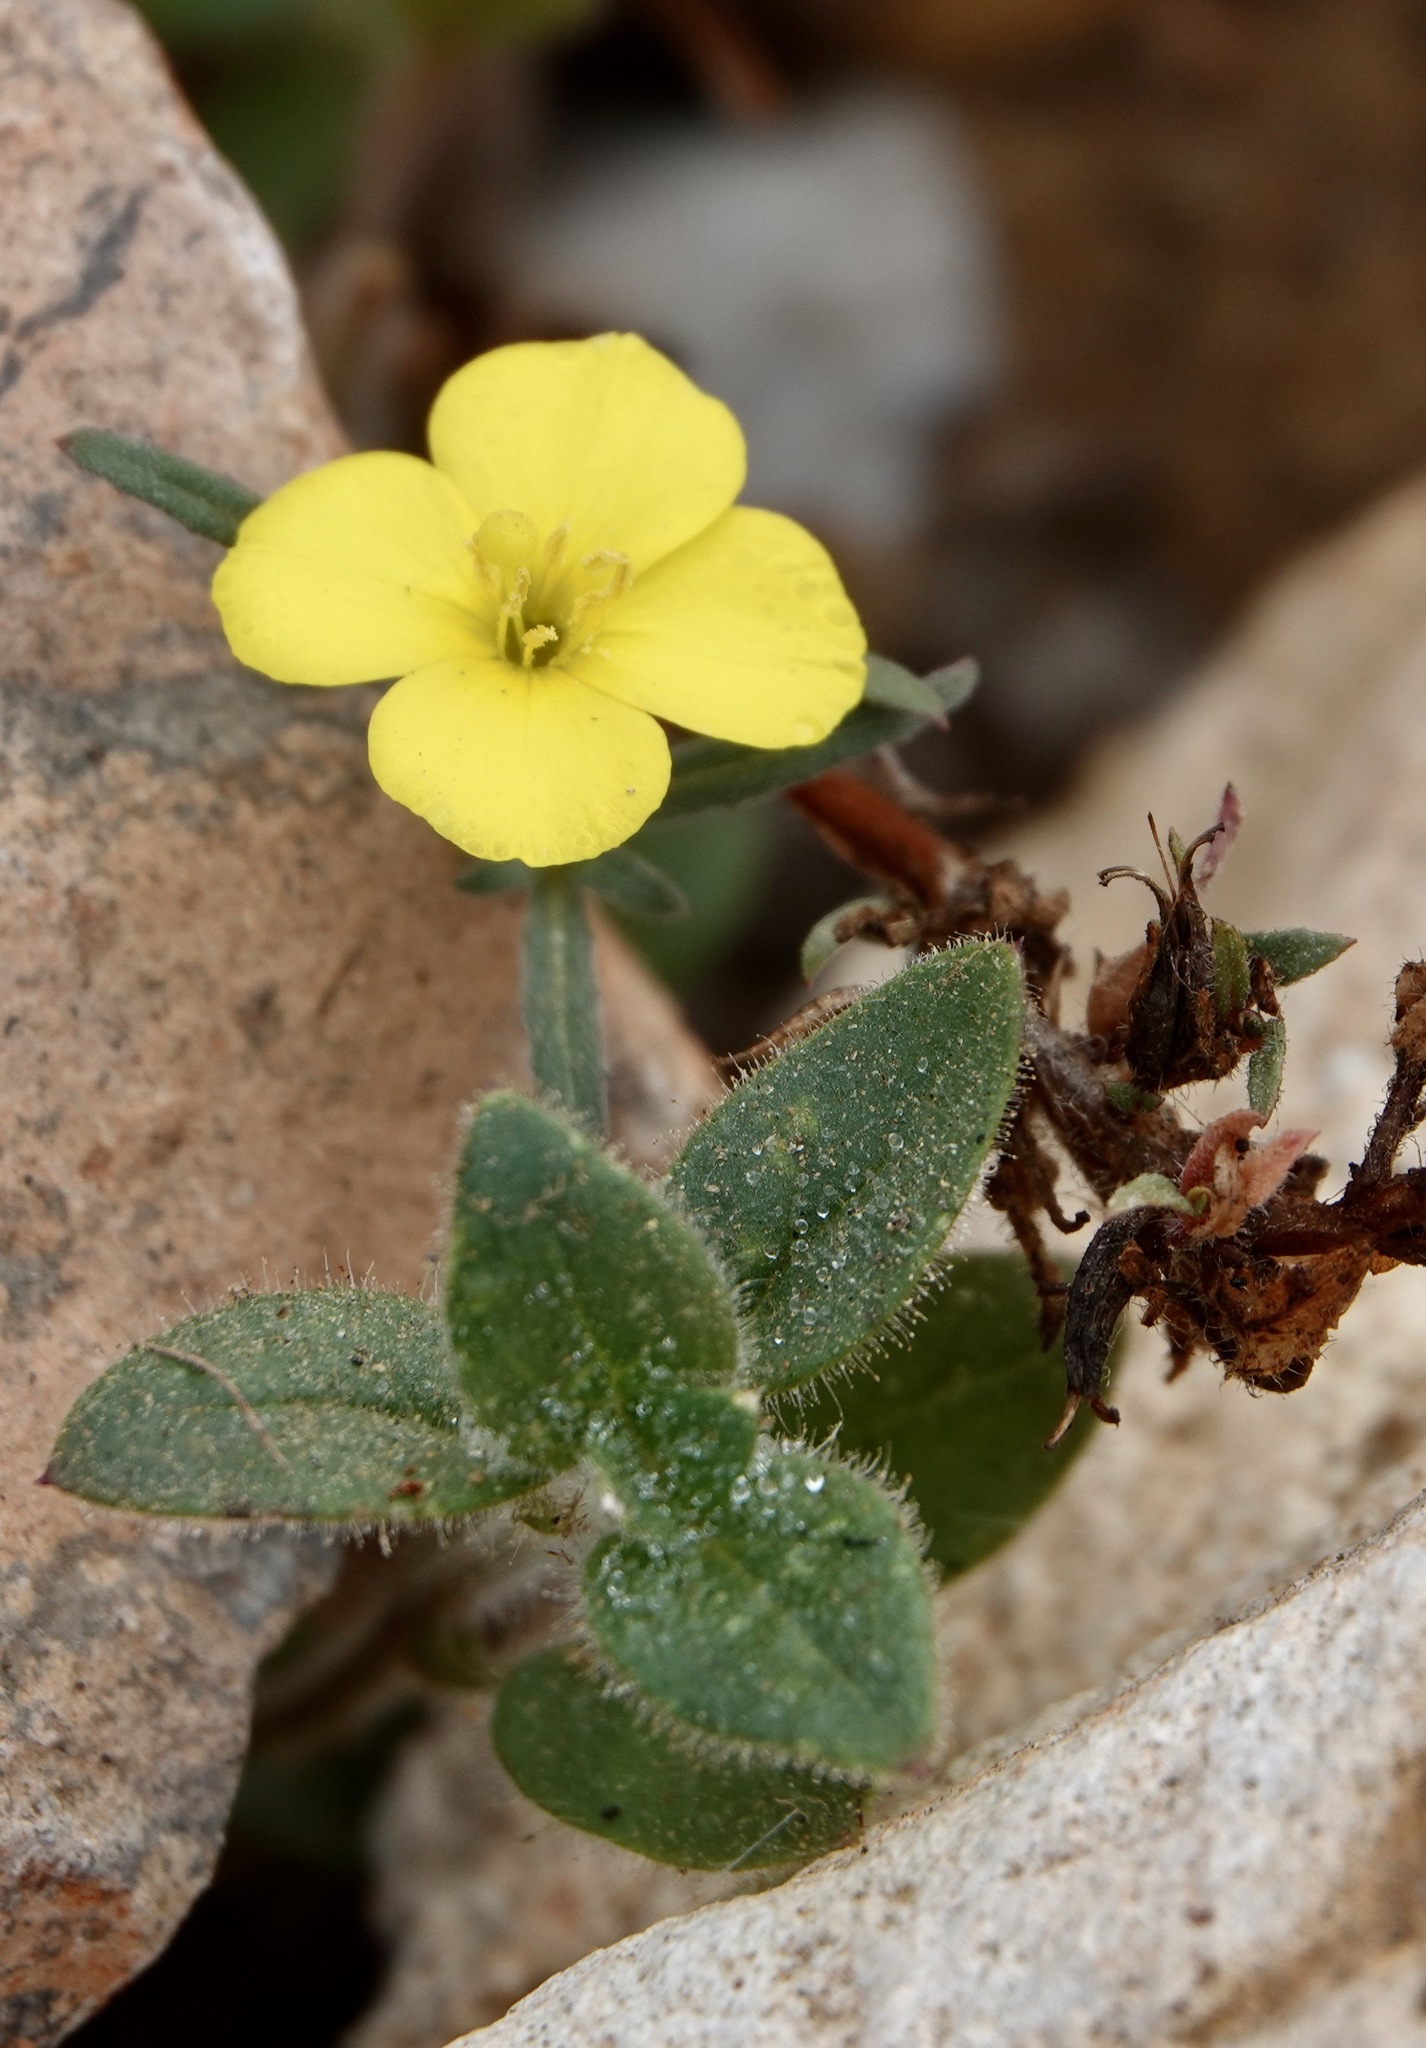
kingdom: Plantae
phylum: Tracheophyta
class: Magnoliopsida
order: Myrtales
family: Onagraceae
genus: Camissoniopsis
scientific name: Camissoniopsis cheiranthifolia
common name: Beach suncup
